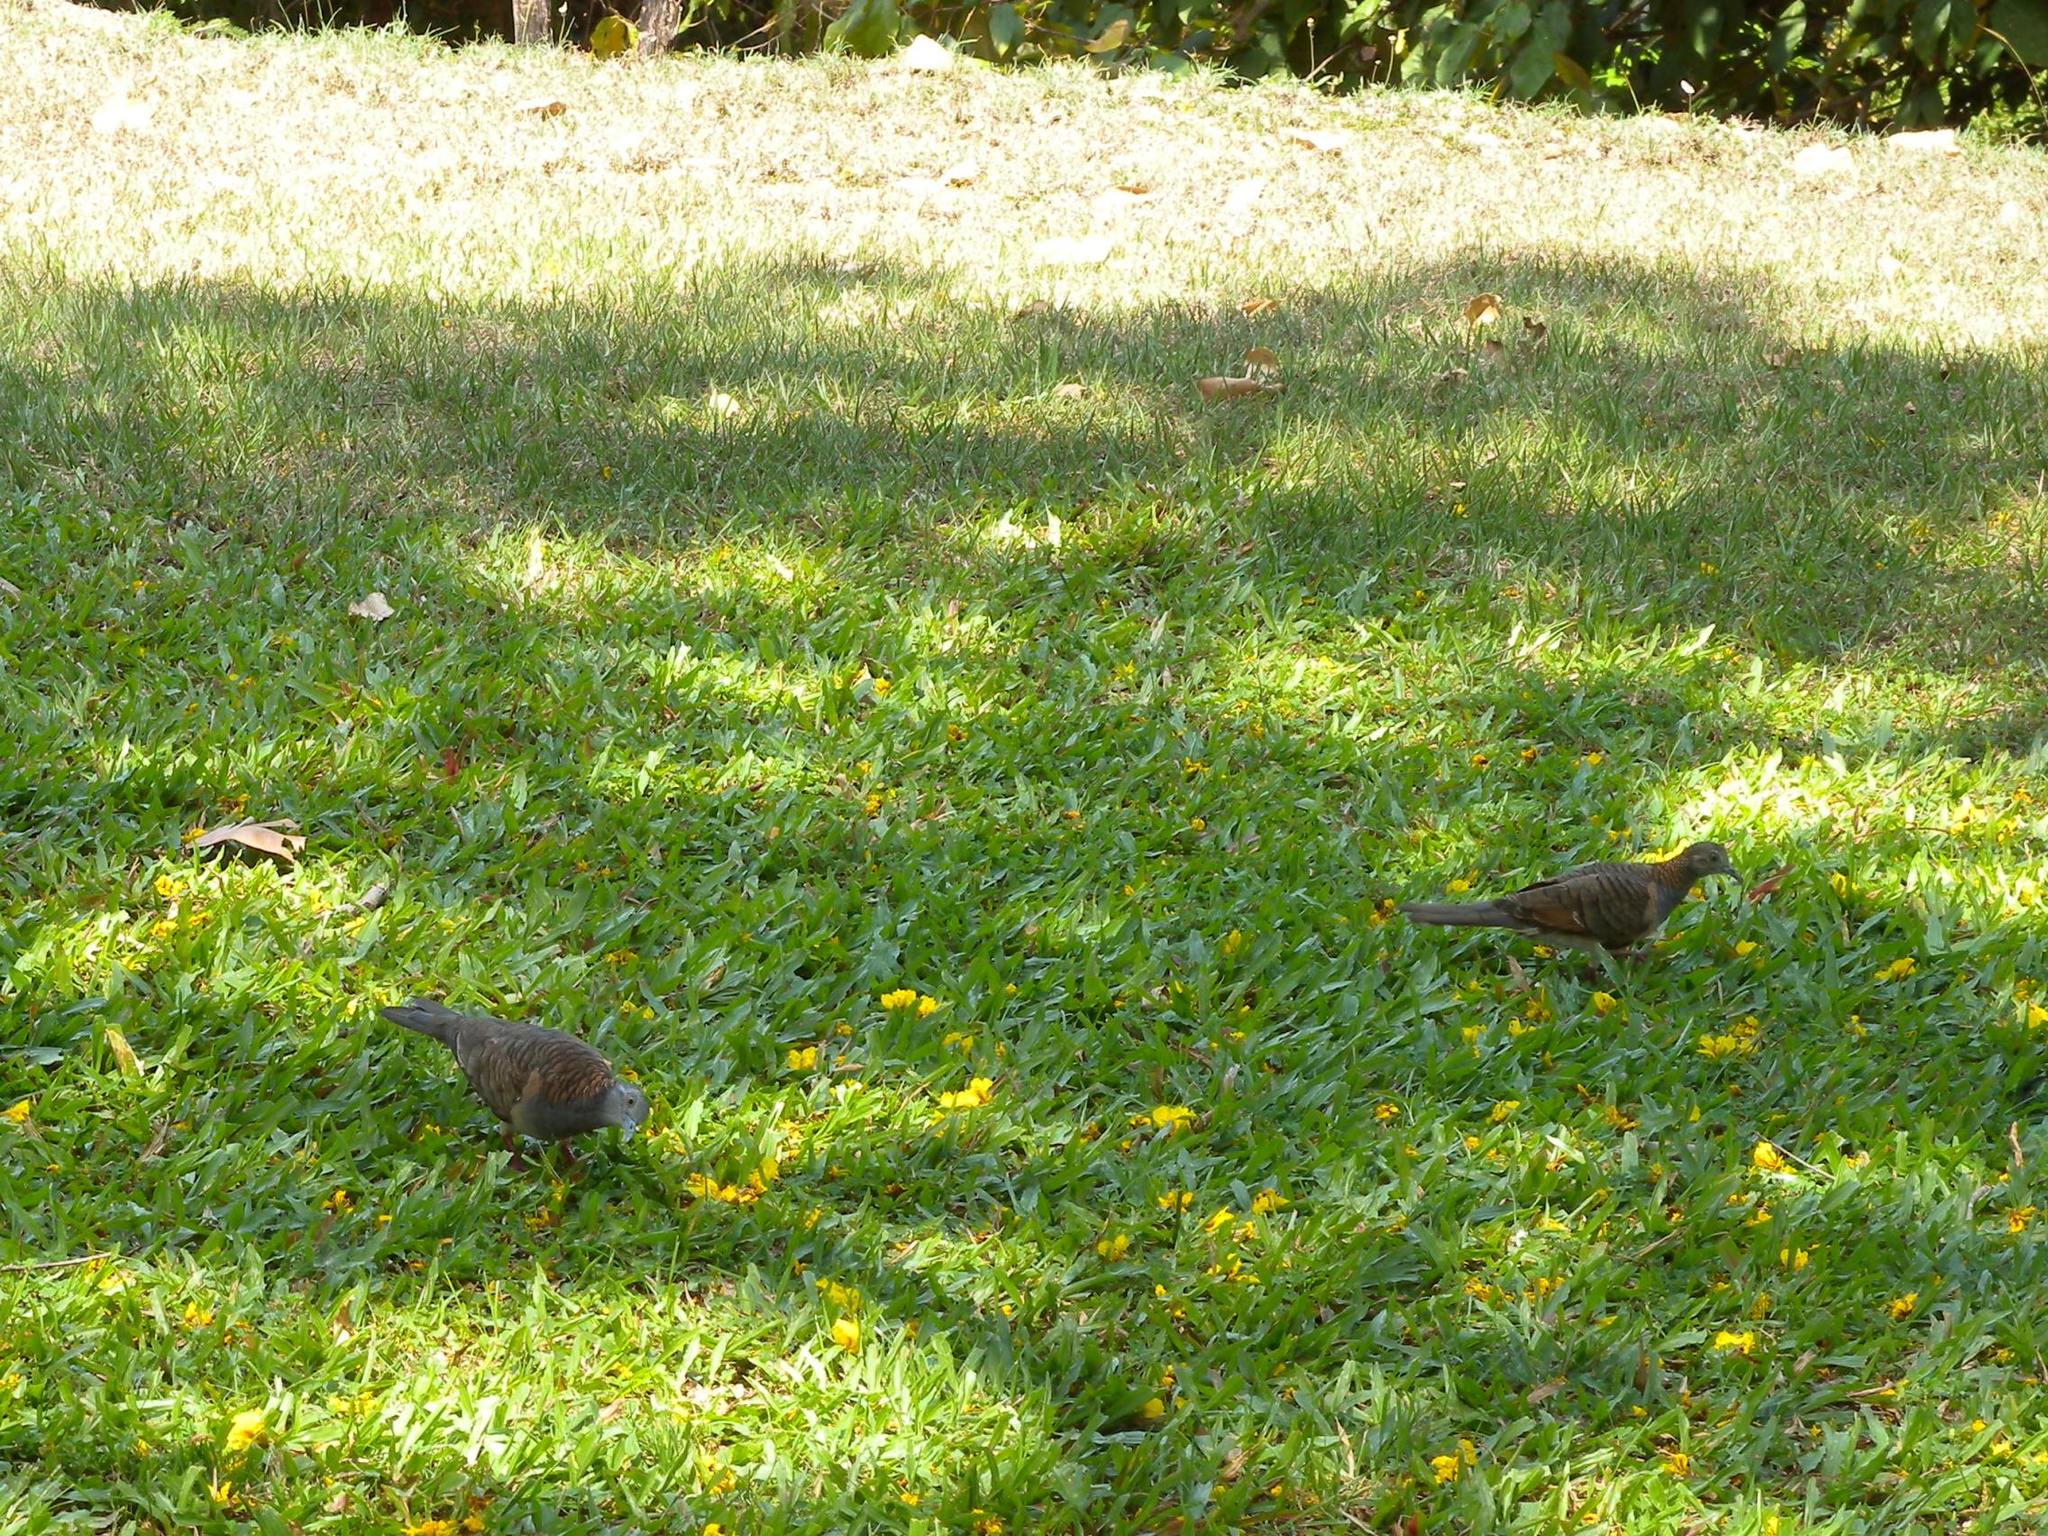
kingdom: Animalia
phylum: Chordata
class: Aves
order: Columbiformes
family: Columbidae
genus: Geopelia
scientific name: Geopelia humeralis
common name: Bar-shouldered dove
